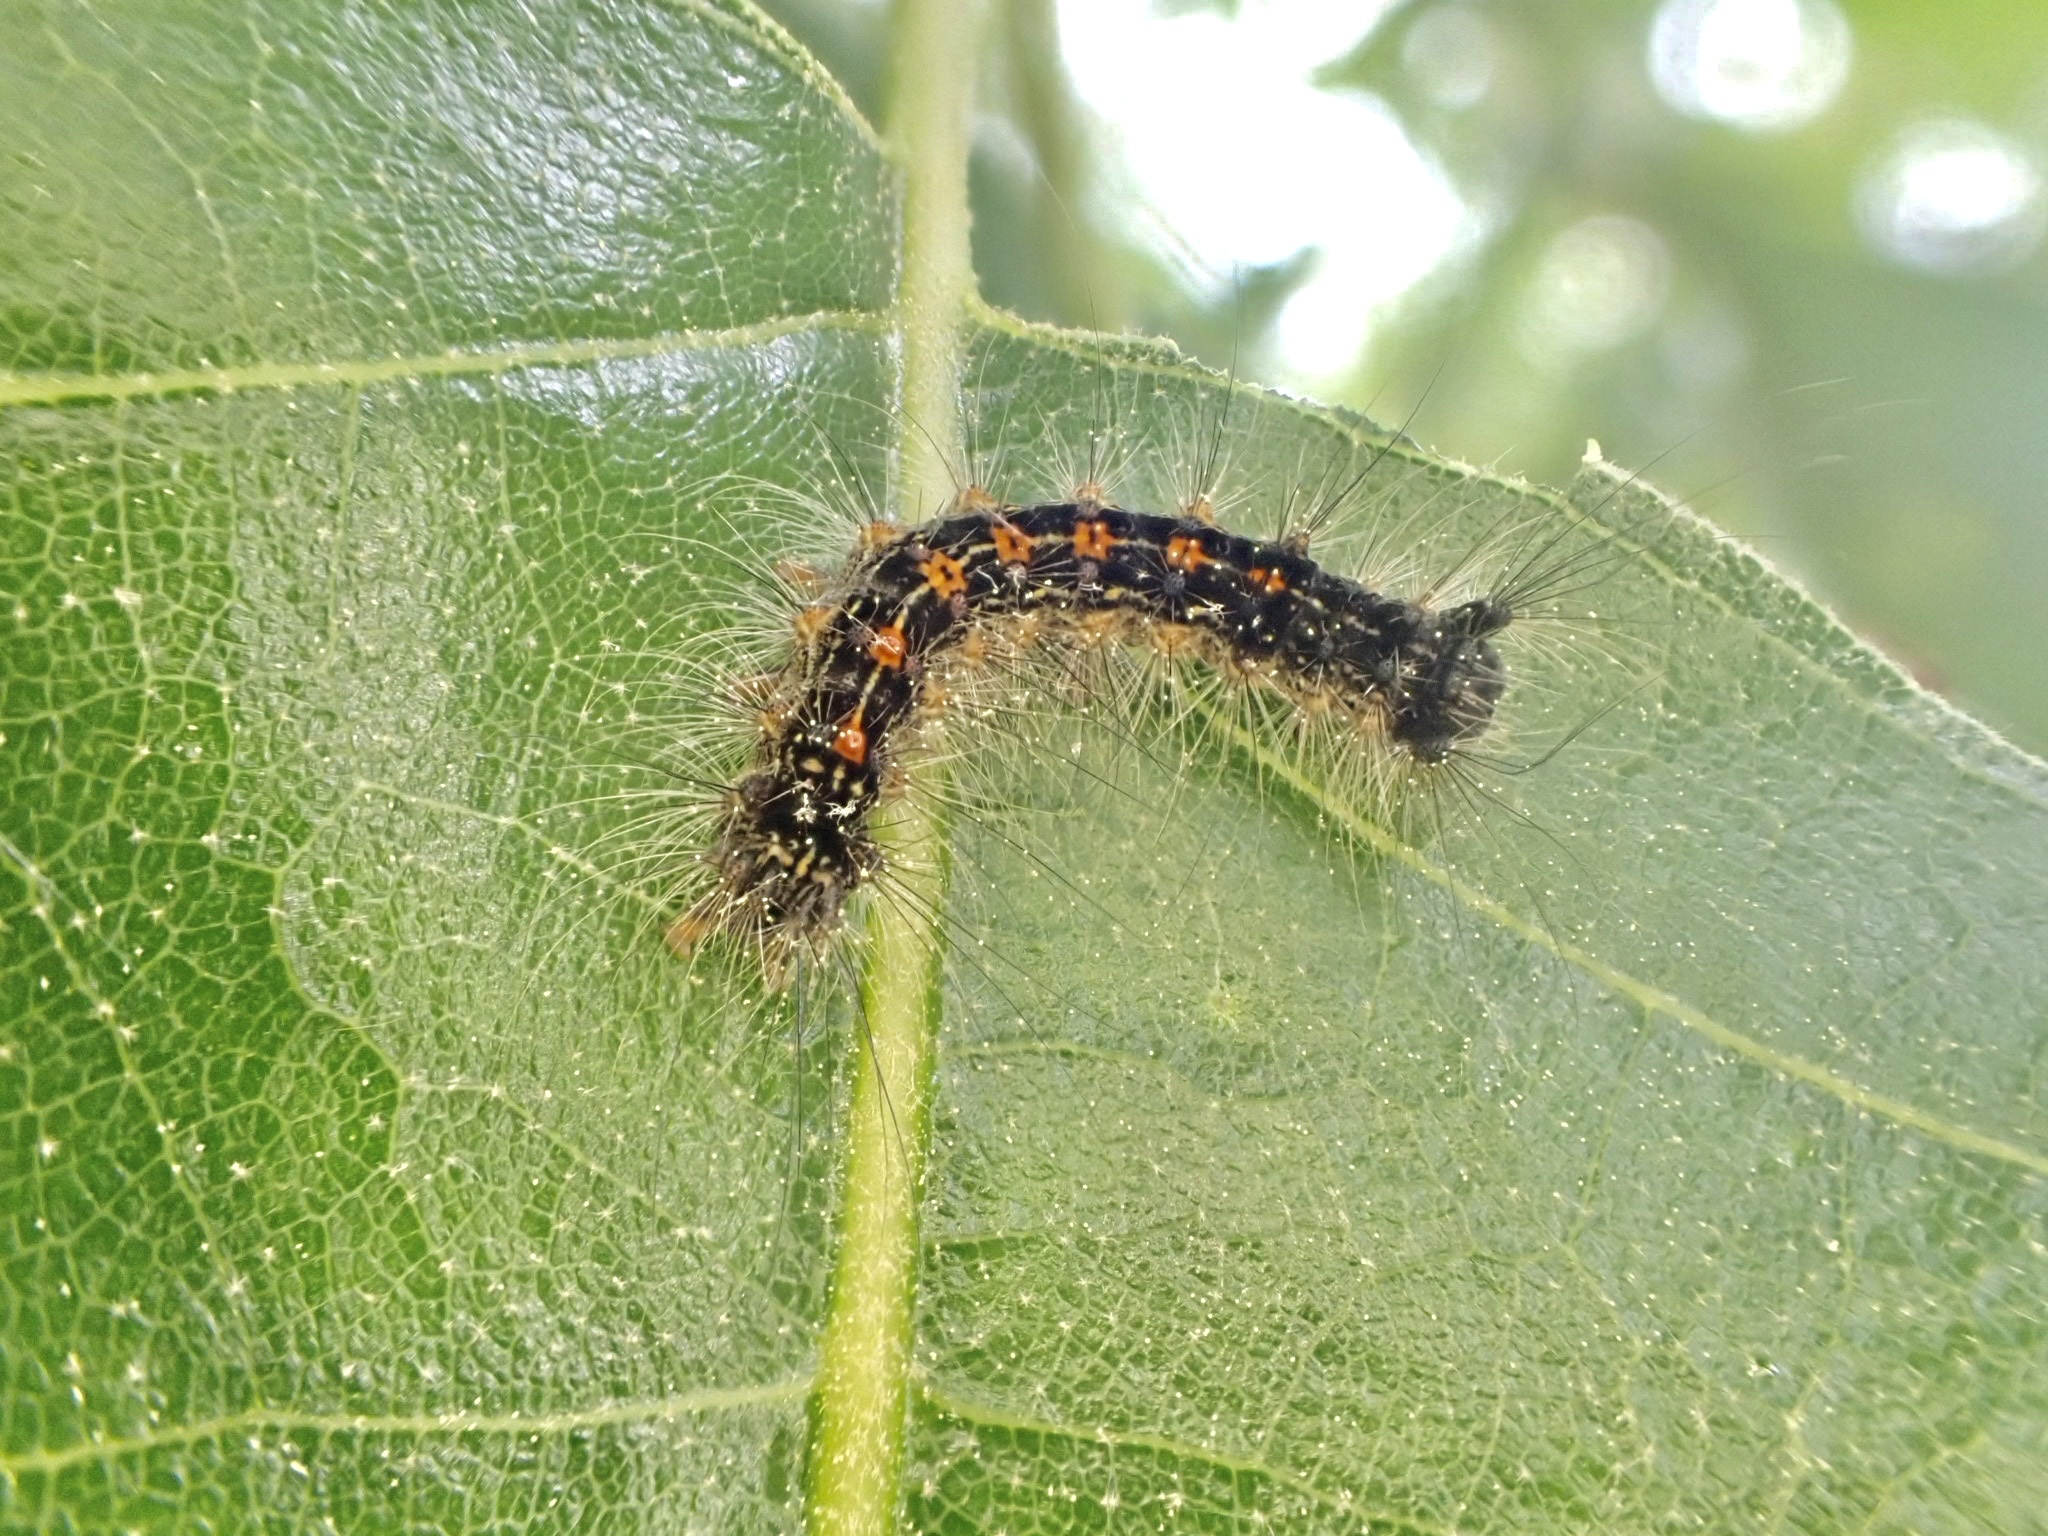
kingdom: Animalia
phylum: Arthropoda
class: Insecta
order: Lepidoptera
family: Erebidae
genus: Lymantria
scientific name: Lymantria dispar
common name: Gypsy moth
